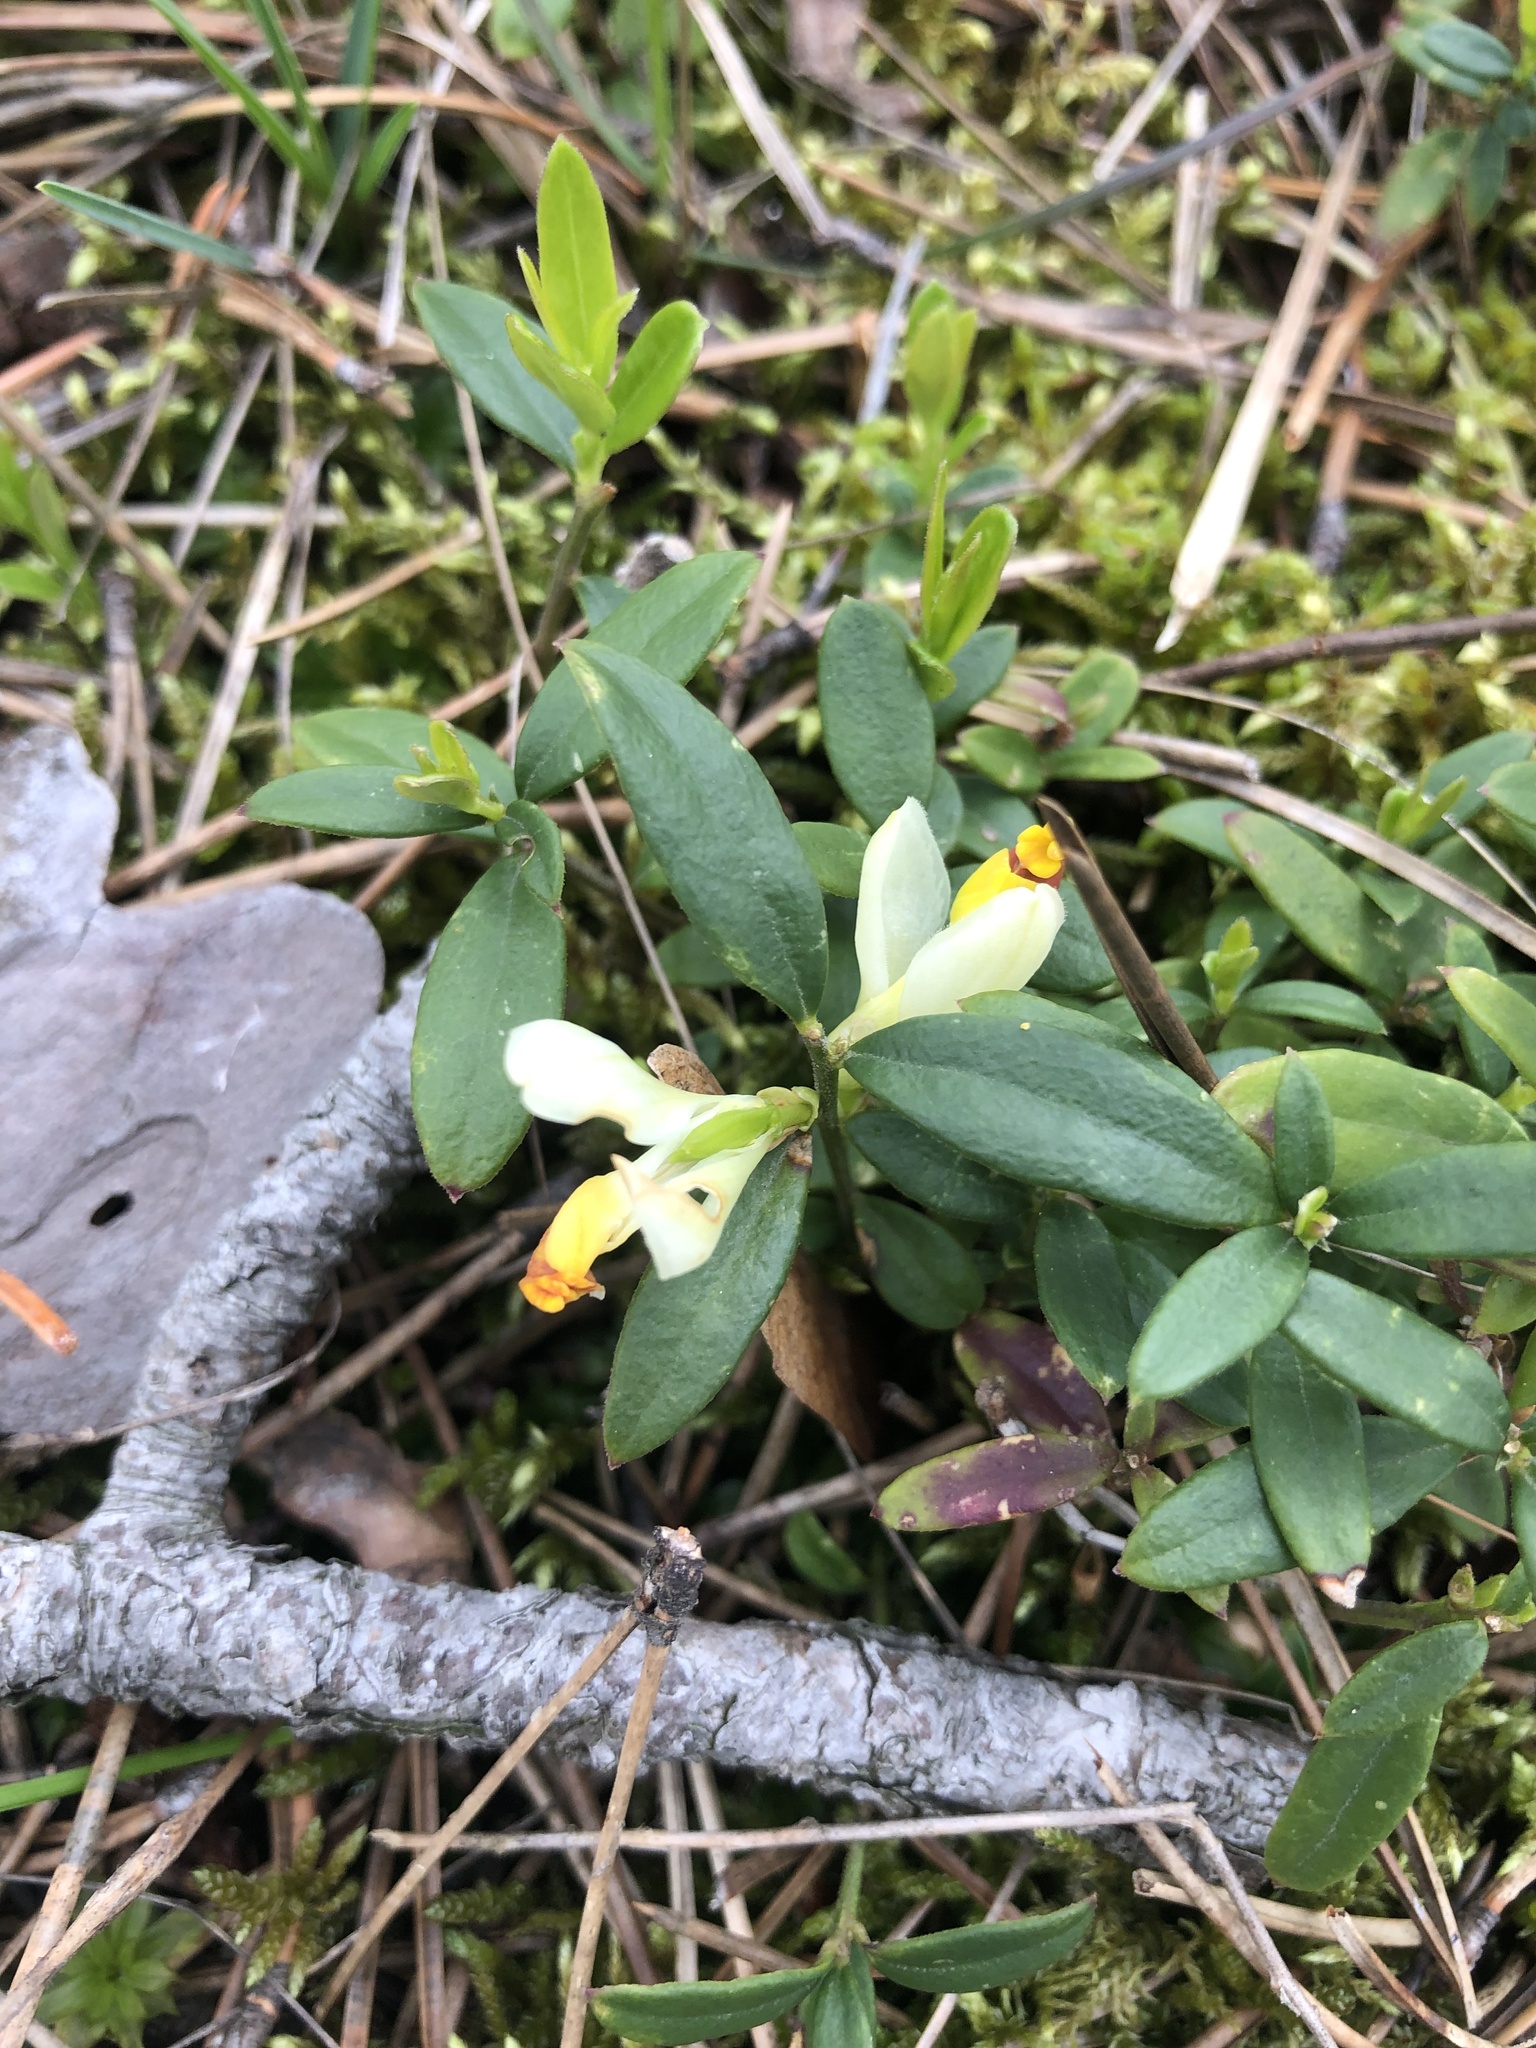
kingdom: Plantae
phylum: Tracheophyta
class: Magnoliopsida
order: Fabales
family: Polygalaceae
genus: Polygaloides
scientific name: Polygaloides chamaebuxus
